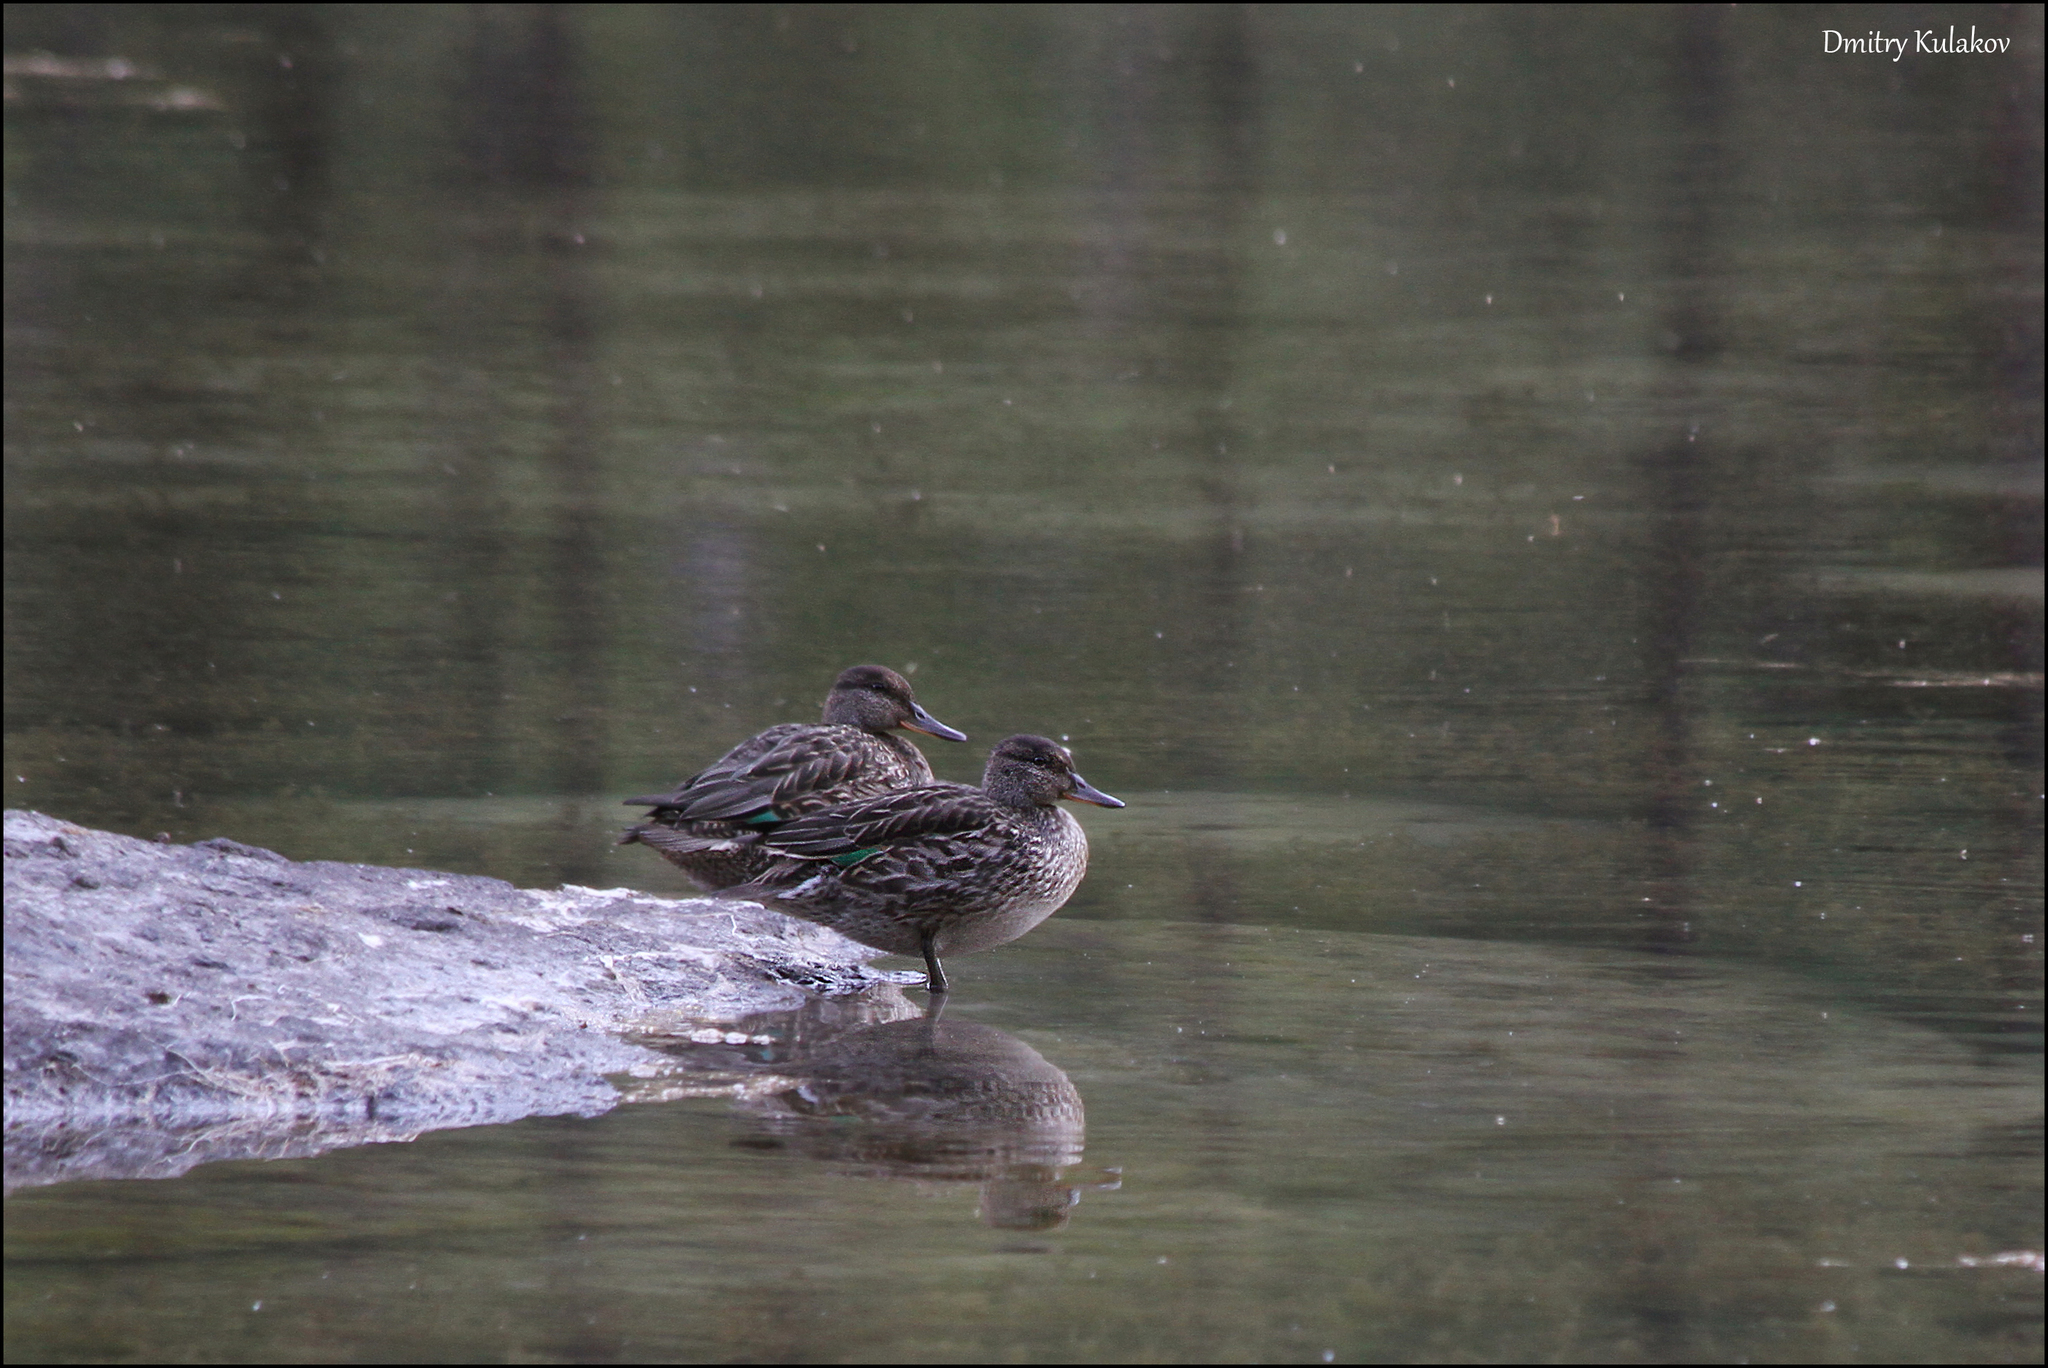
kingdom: Animalia
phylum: Chordata
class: Aves
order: Anseriformes
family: Anatidae
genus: Anas
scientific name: Anas crecca
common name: Eurasian teal
